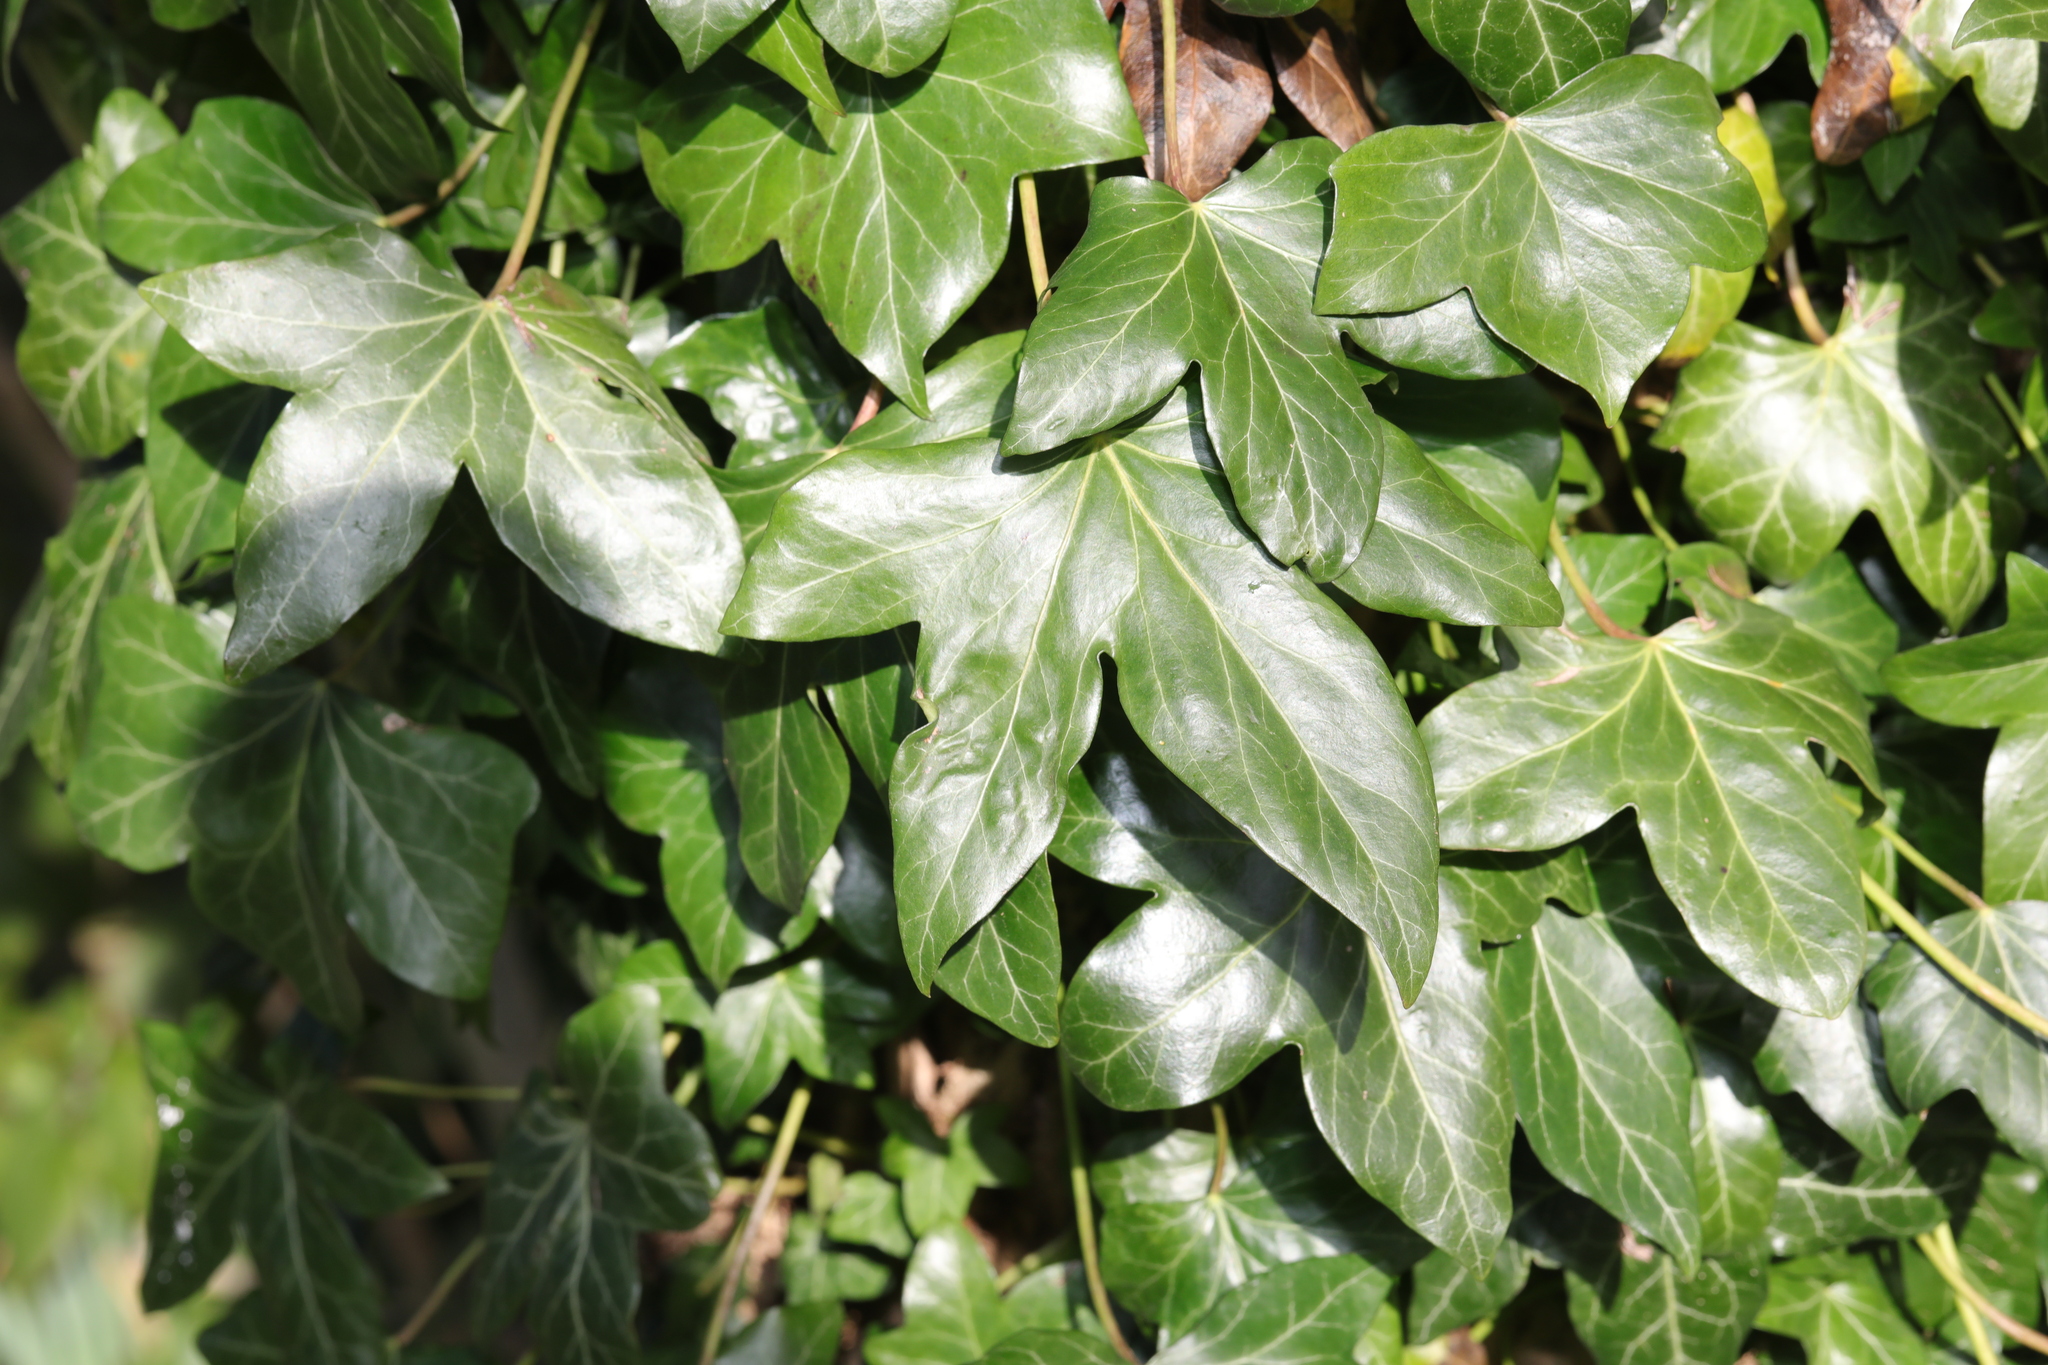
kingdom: Plantae
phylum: Tracheophyta
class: Magnoliopsida
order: Apiales
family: Araliaceae
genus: Hedera
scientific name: Hedera helix
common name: Ivy
